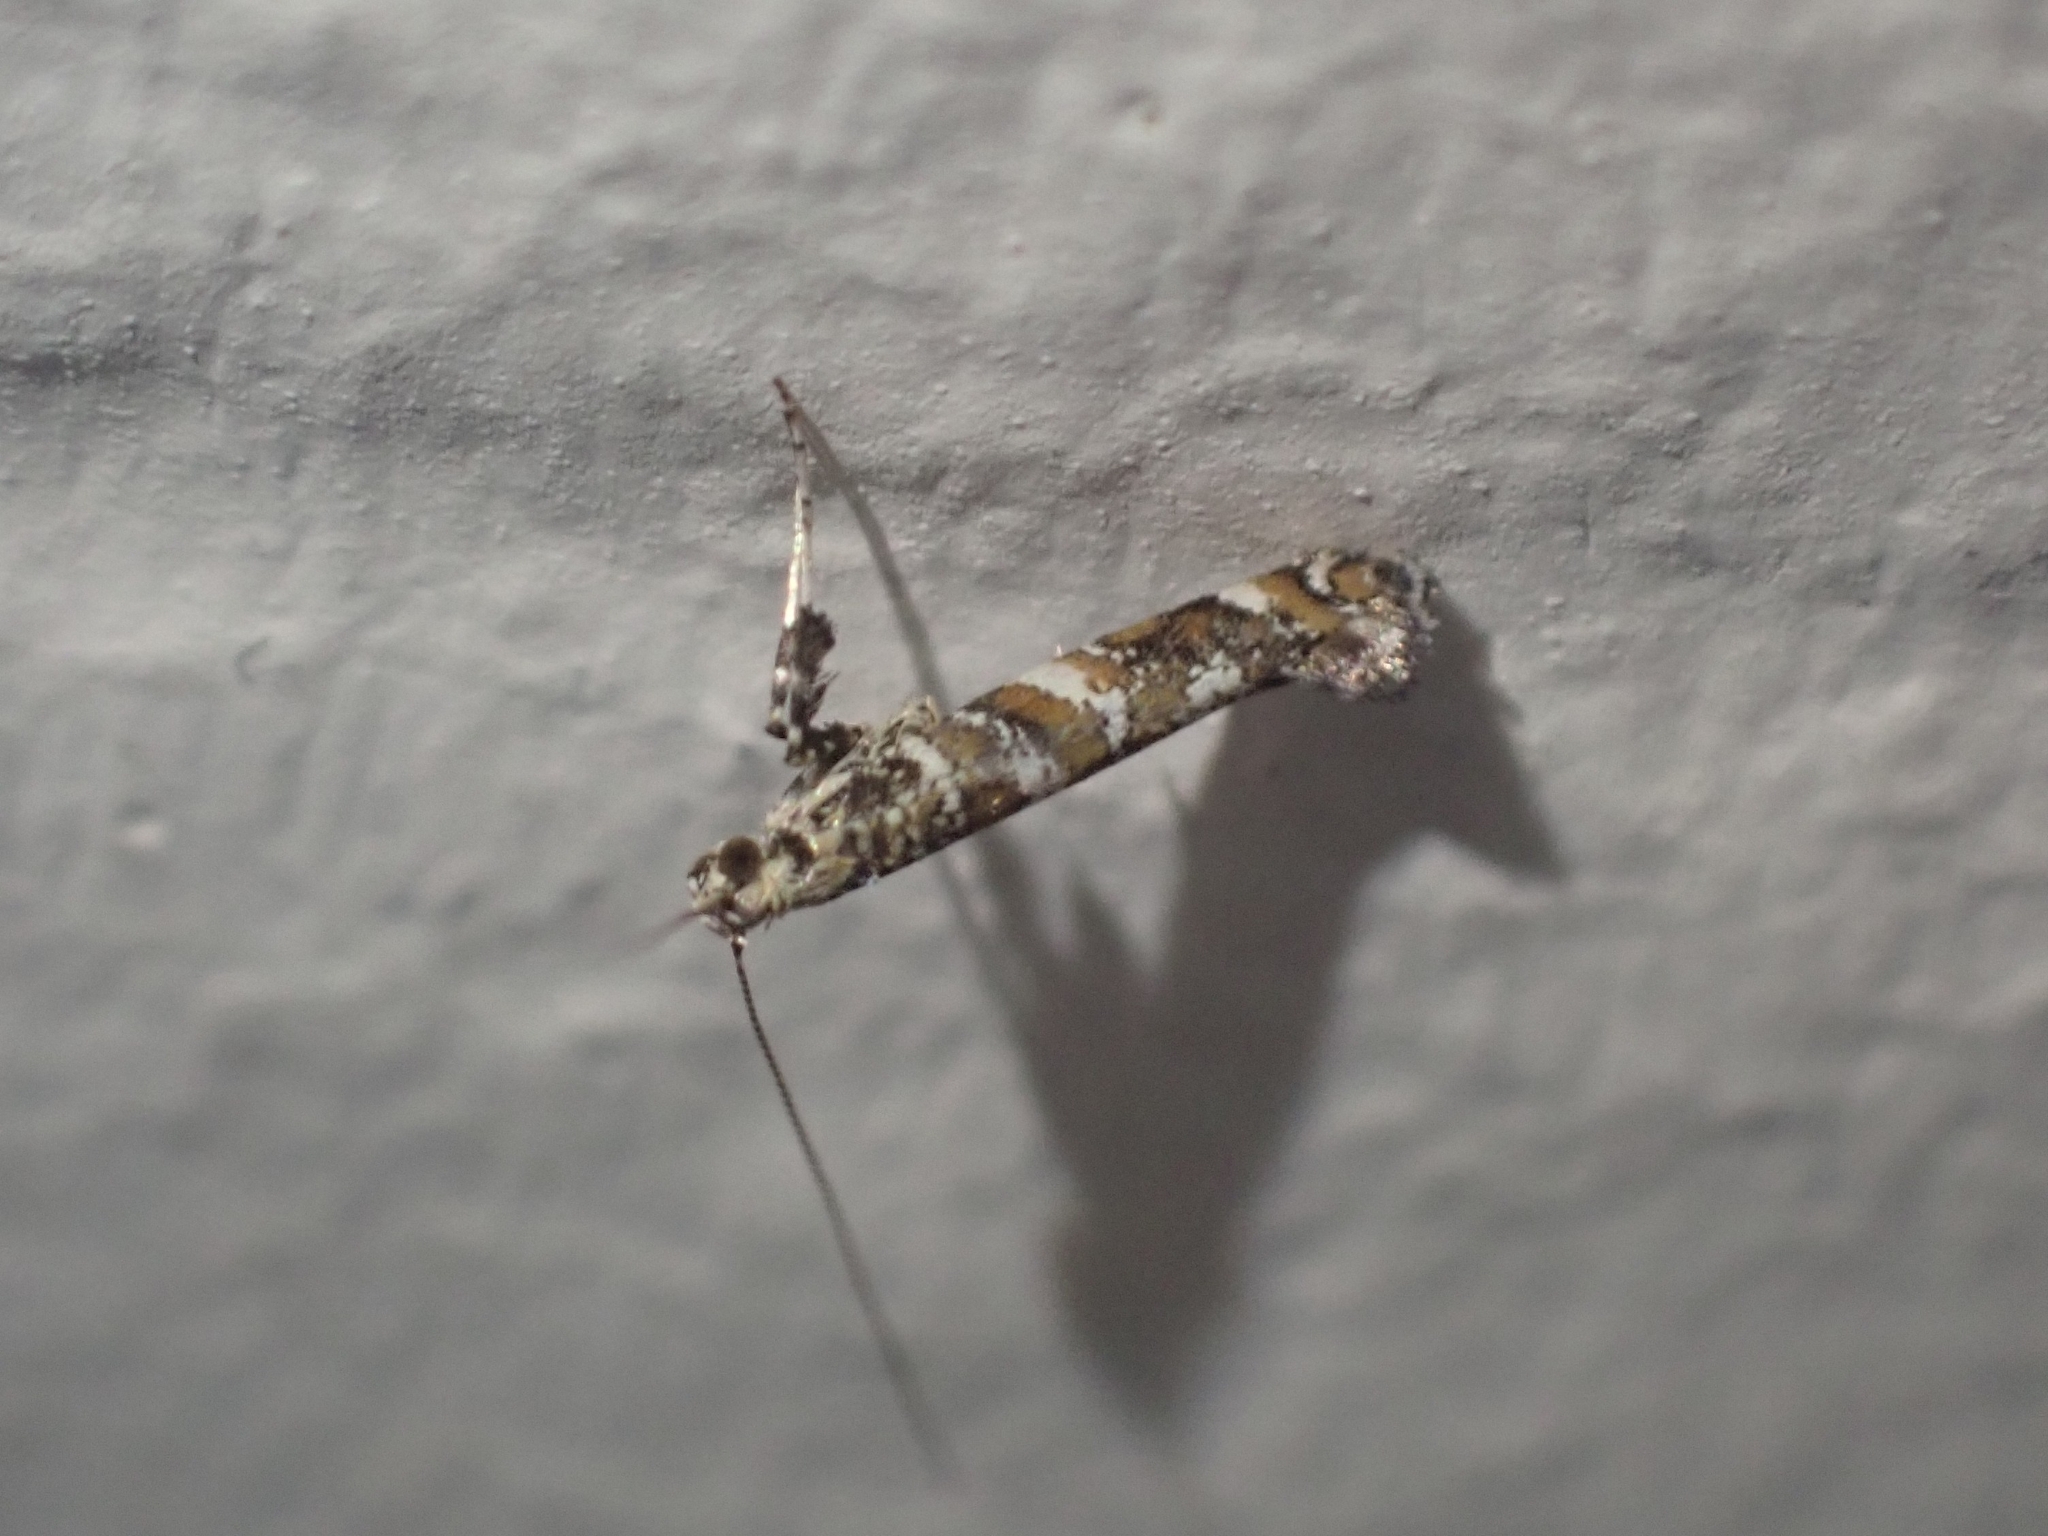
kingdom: Animalia
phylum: Arthropoda
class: Insecta
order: Lepidoptera
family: Gracillariidae
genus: Gracillaria
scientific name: Gracillaria syringella
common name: Common slender
